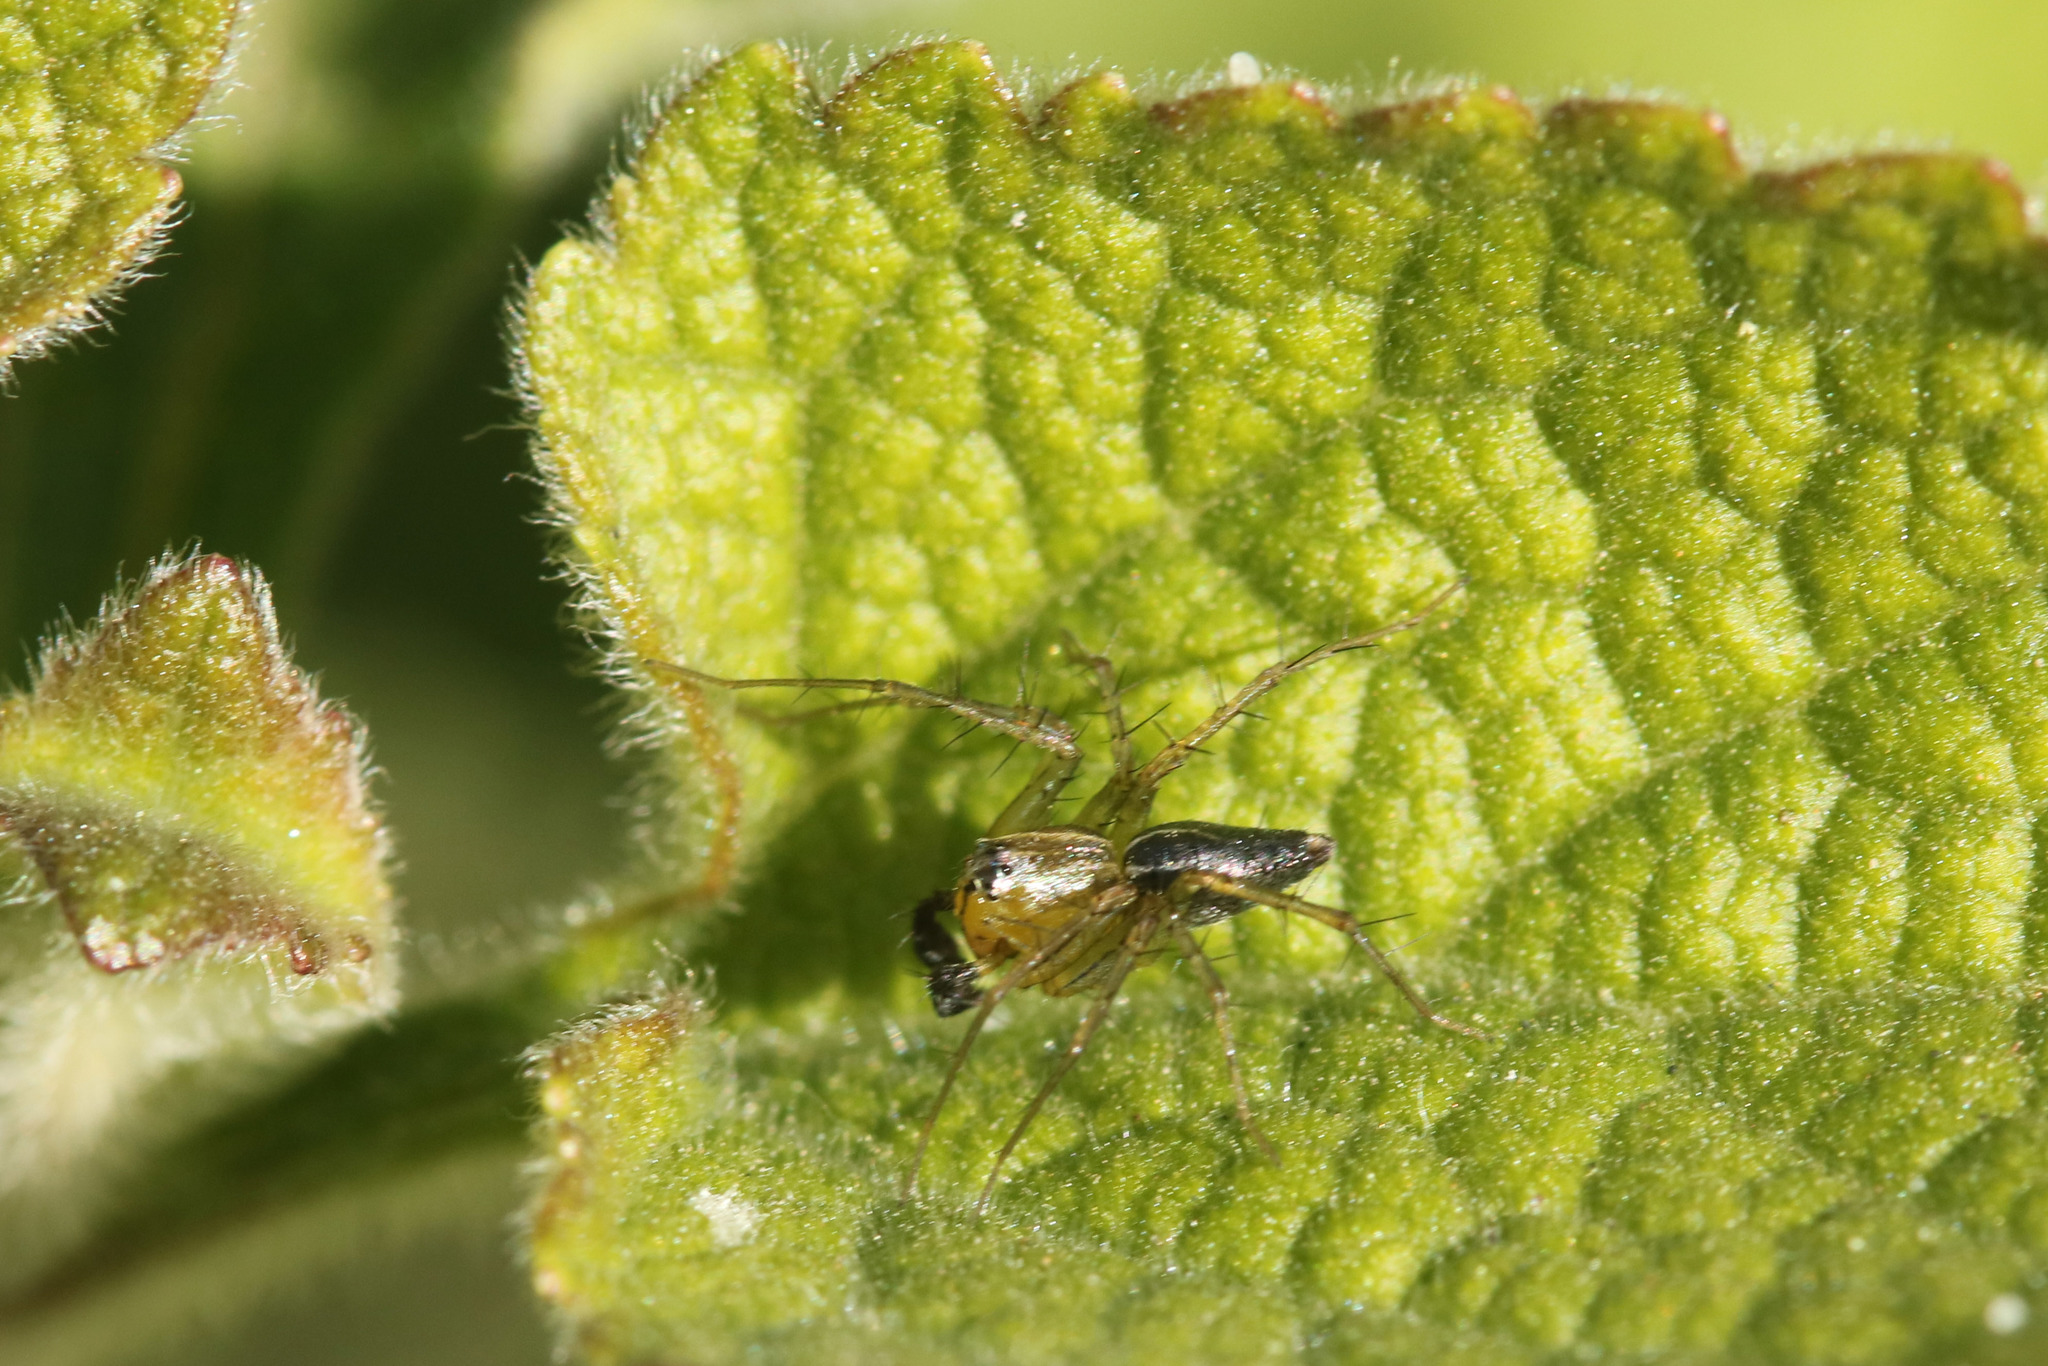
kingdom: Animalia
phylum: Arthropoda
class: Arachnida
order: Araneae
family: Oxyopidae
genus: Oxyopes
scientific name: Oxyopes salticus
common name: Lynx spiders
